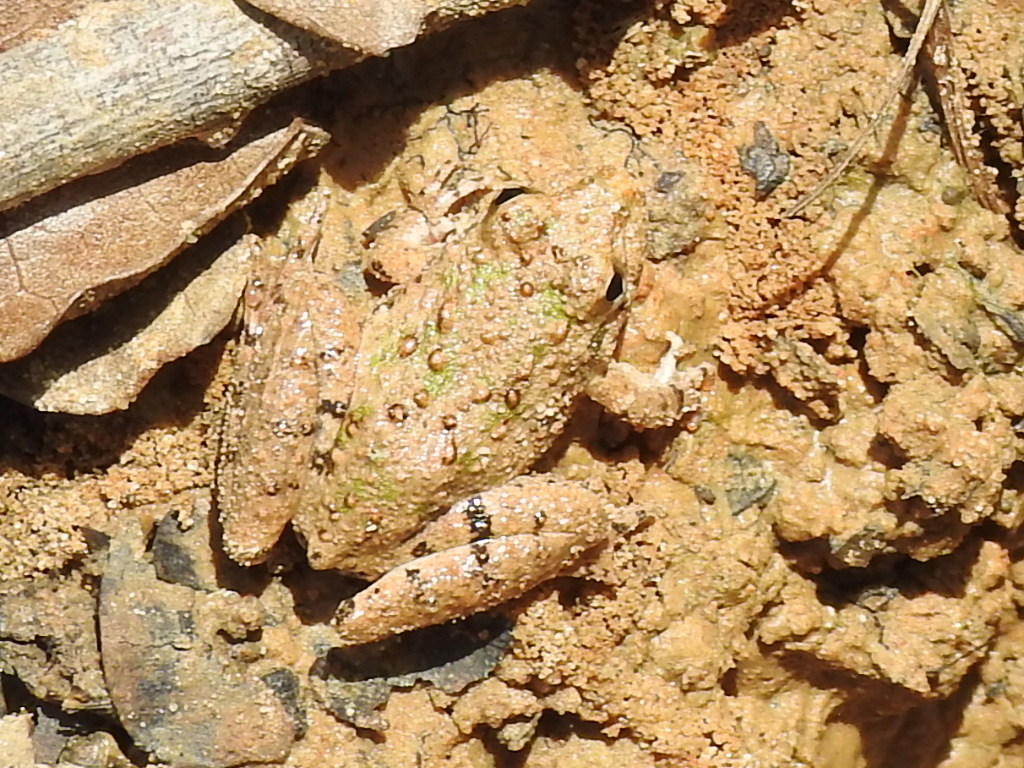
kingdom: Animalia
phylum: Chordata
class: Amphibia
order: Anura
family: Hylidae
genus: Acris
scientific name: Acris blanchardi
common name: Blanchard's cricket frog
